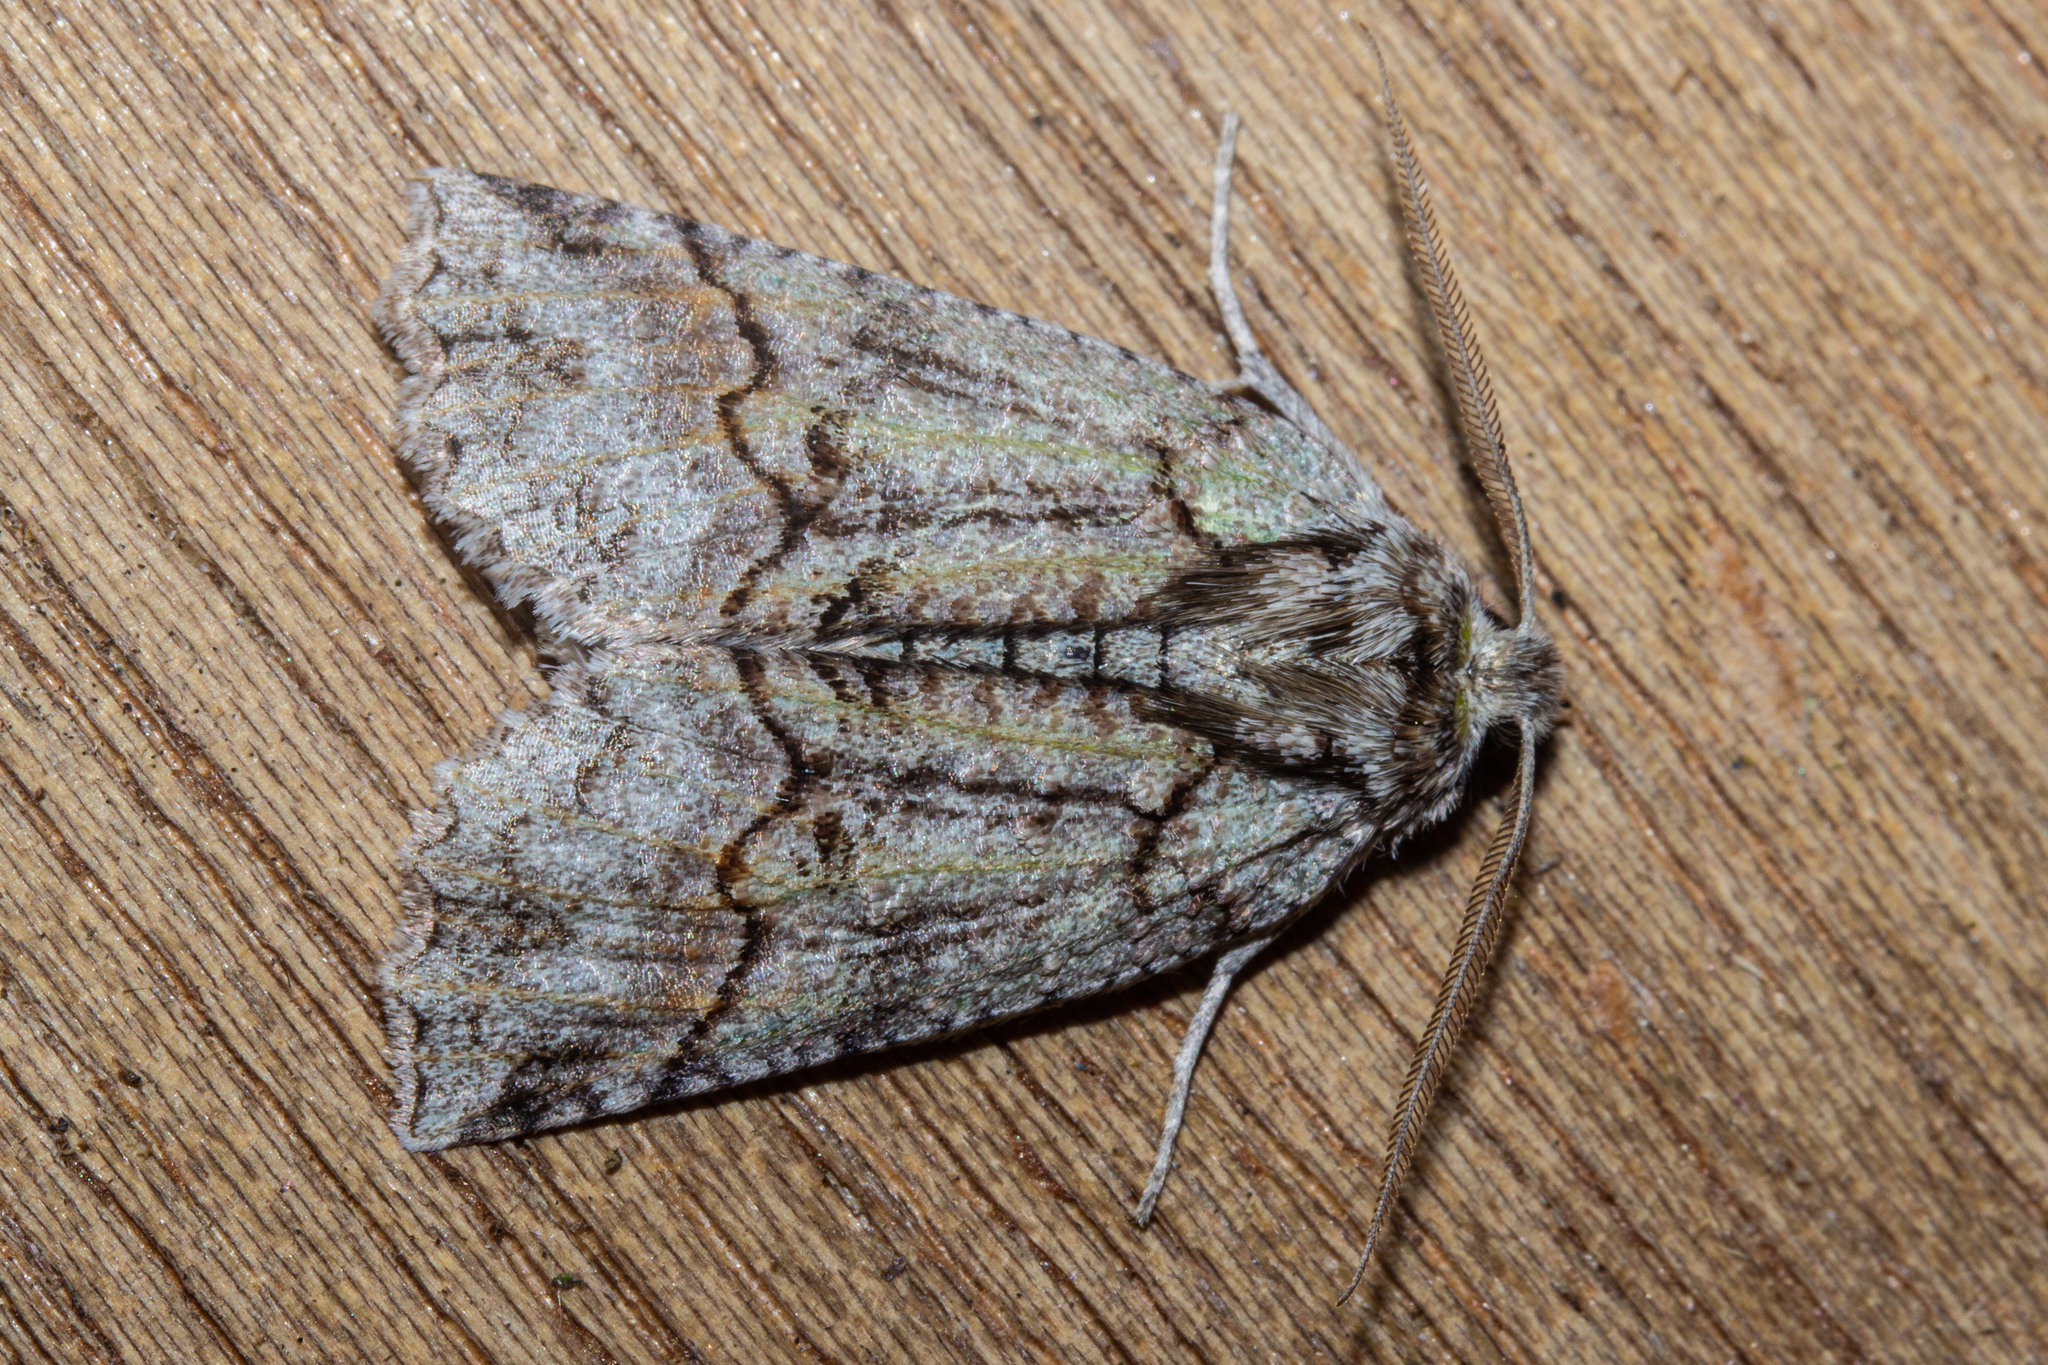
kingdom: Animalia
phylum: Arthropoda
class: Insecta
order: Lepidoptera
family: Geometridae
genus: Declana
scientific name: Declana floccosa
